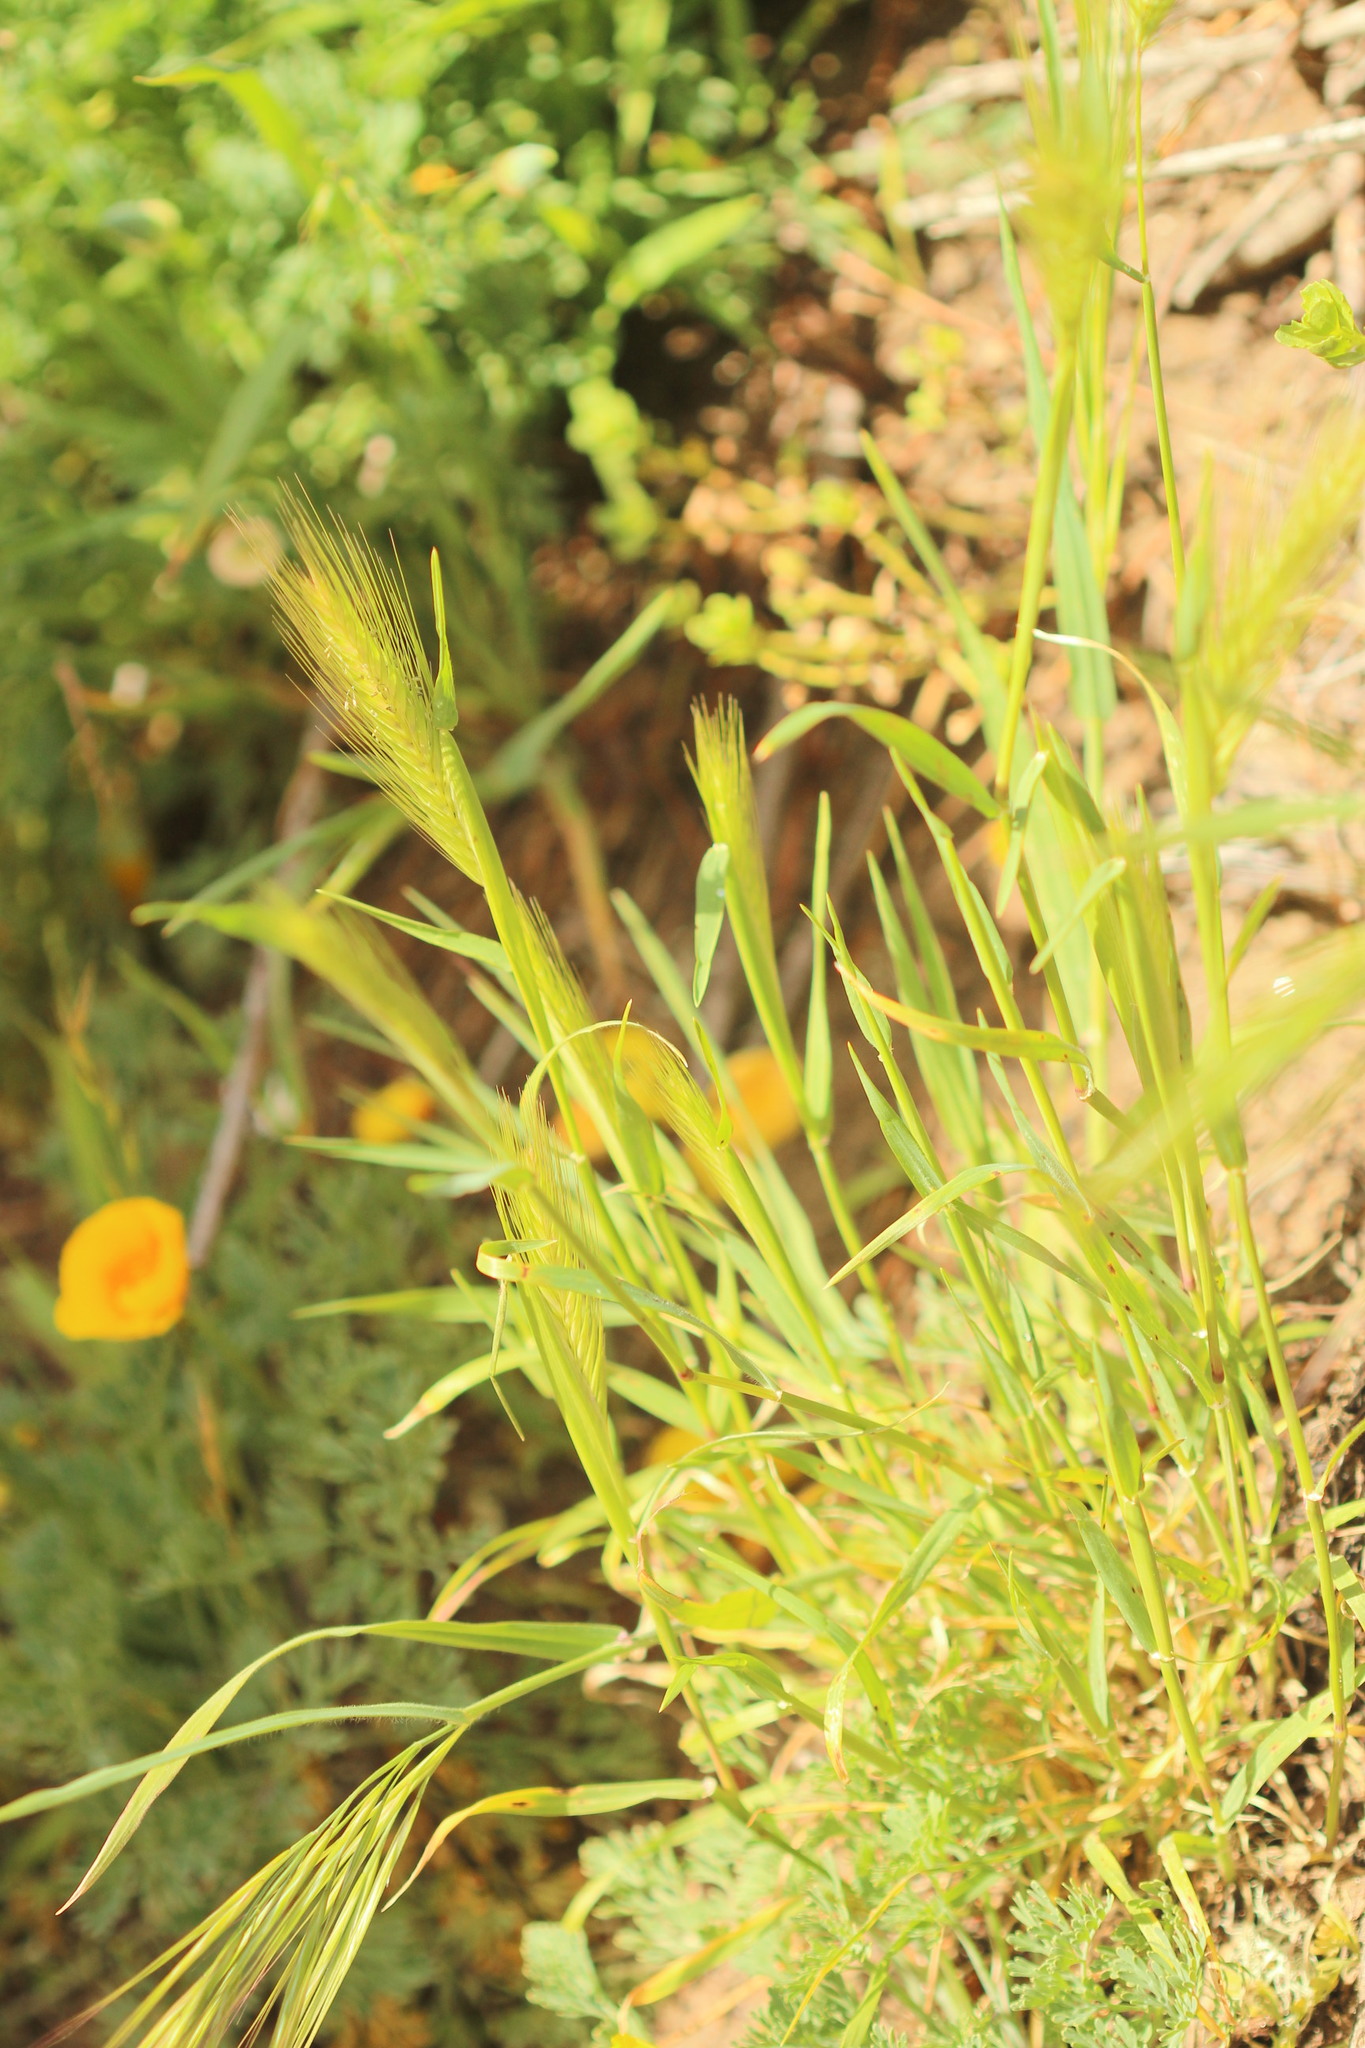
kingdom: Plantae
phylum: Tracheophyta
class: Liliopsida
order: Poales
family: Poaceae
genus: Hordeum
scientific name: Hordeum murinum
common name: Wall barley
